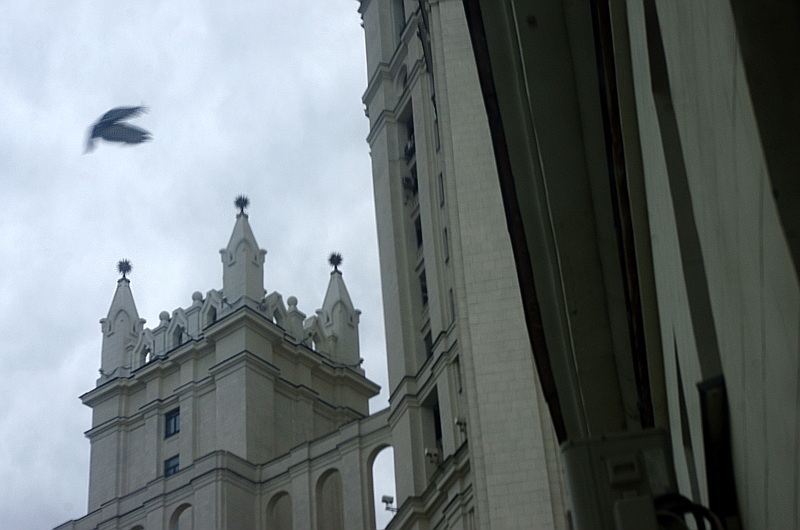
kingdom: Animalia
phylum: Chordata
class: Aves
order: Columbiformes
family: Columbidae
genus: Columba
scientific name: Columba livia
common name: Rock pigeon
